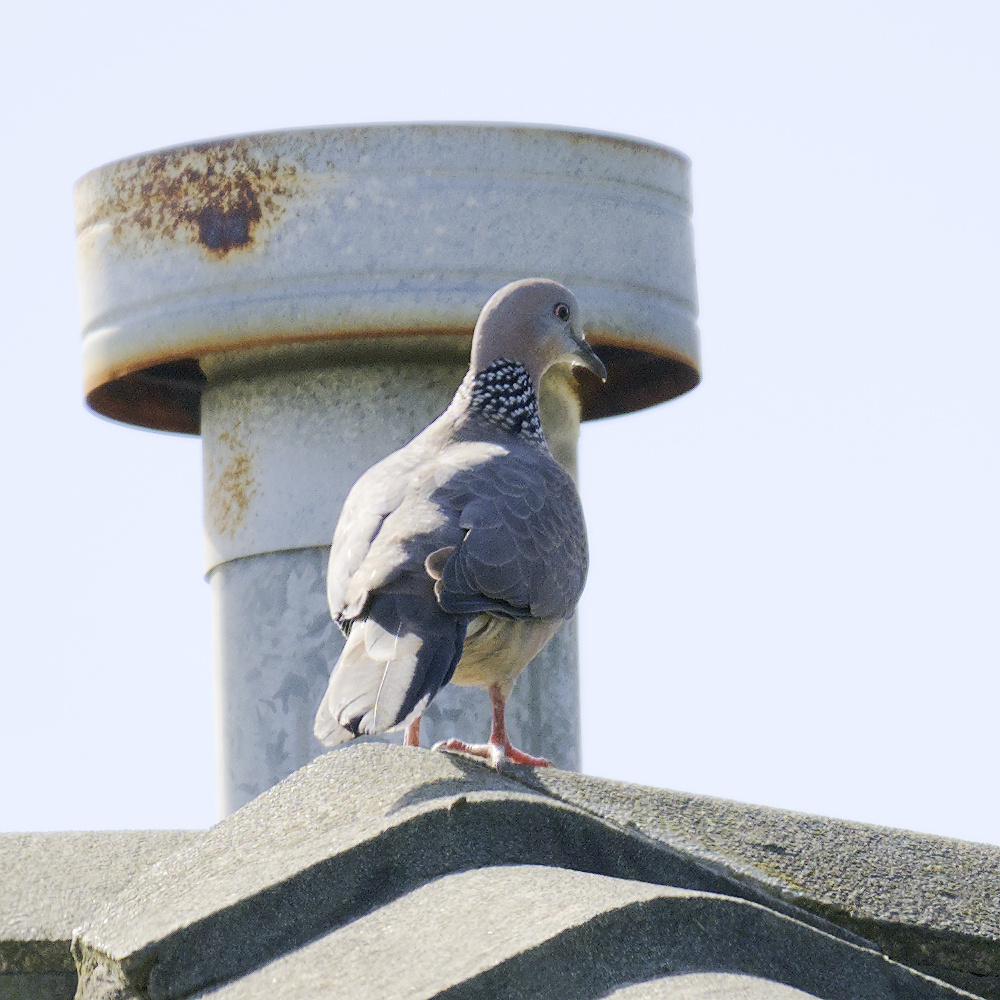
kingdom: Animalia
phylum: Chordata
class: Aves
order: Columbiformes
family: Columbidae
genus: Spilopelia
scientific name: Spilopelia chinensis
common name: Spotted dove
